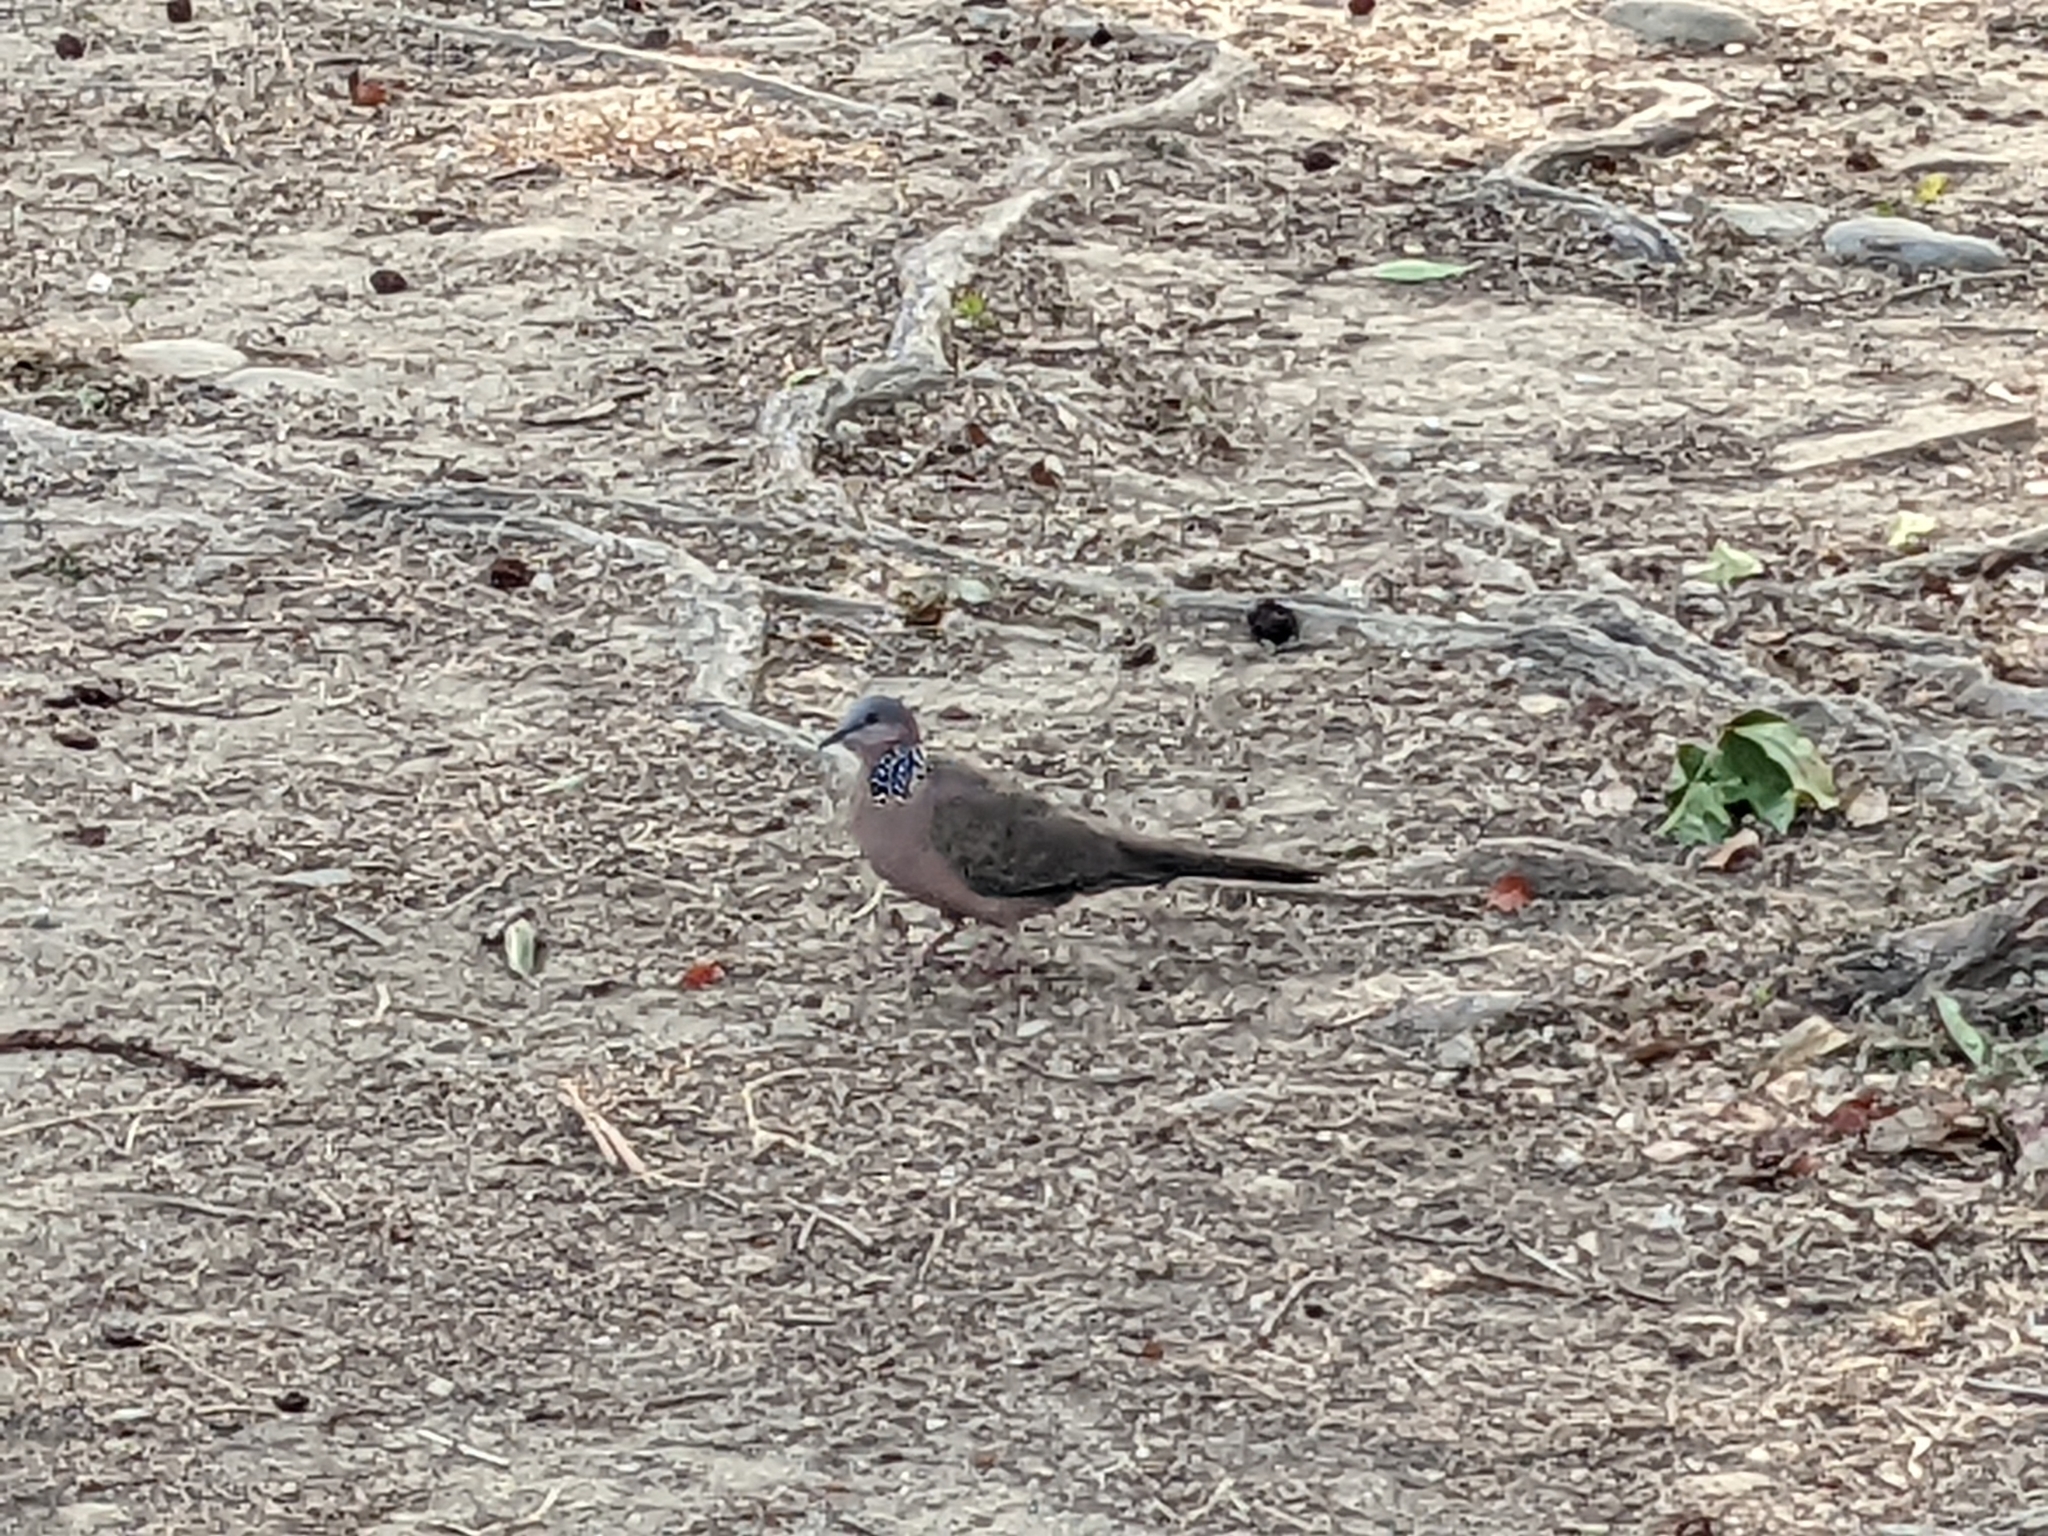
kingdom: Animalia
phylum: Chordata
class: Aves
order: Columbiformes
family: Columbidae
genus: Spilopelia
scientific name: Spilopelia chinensis
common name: Spotted dove
